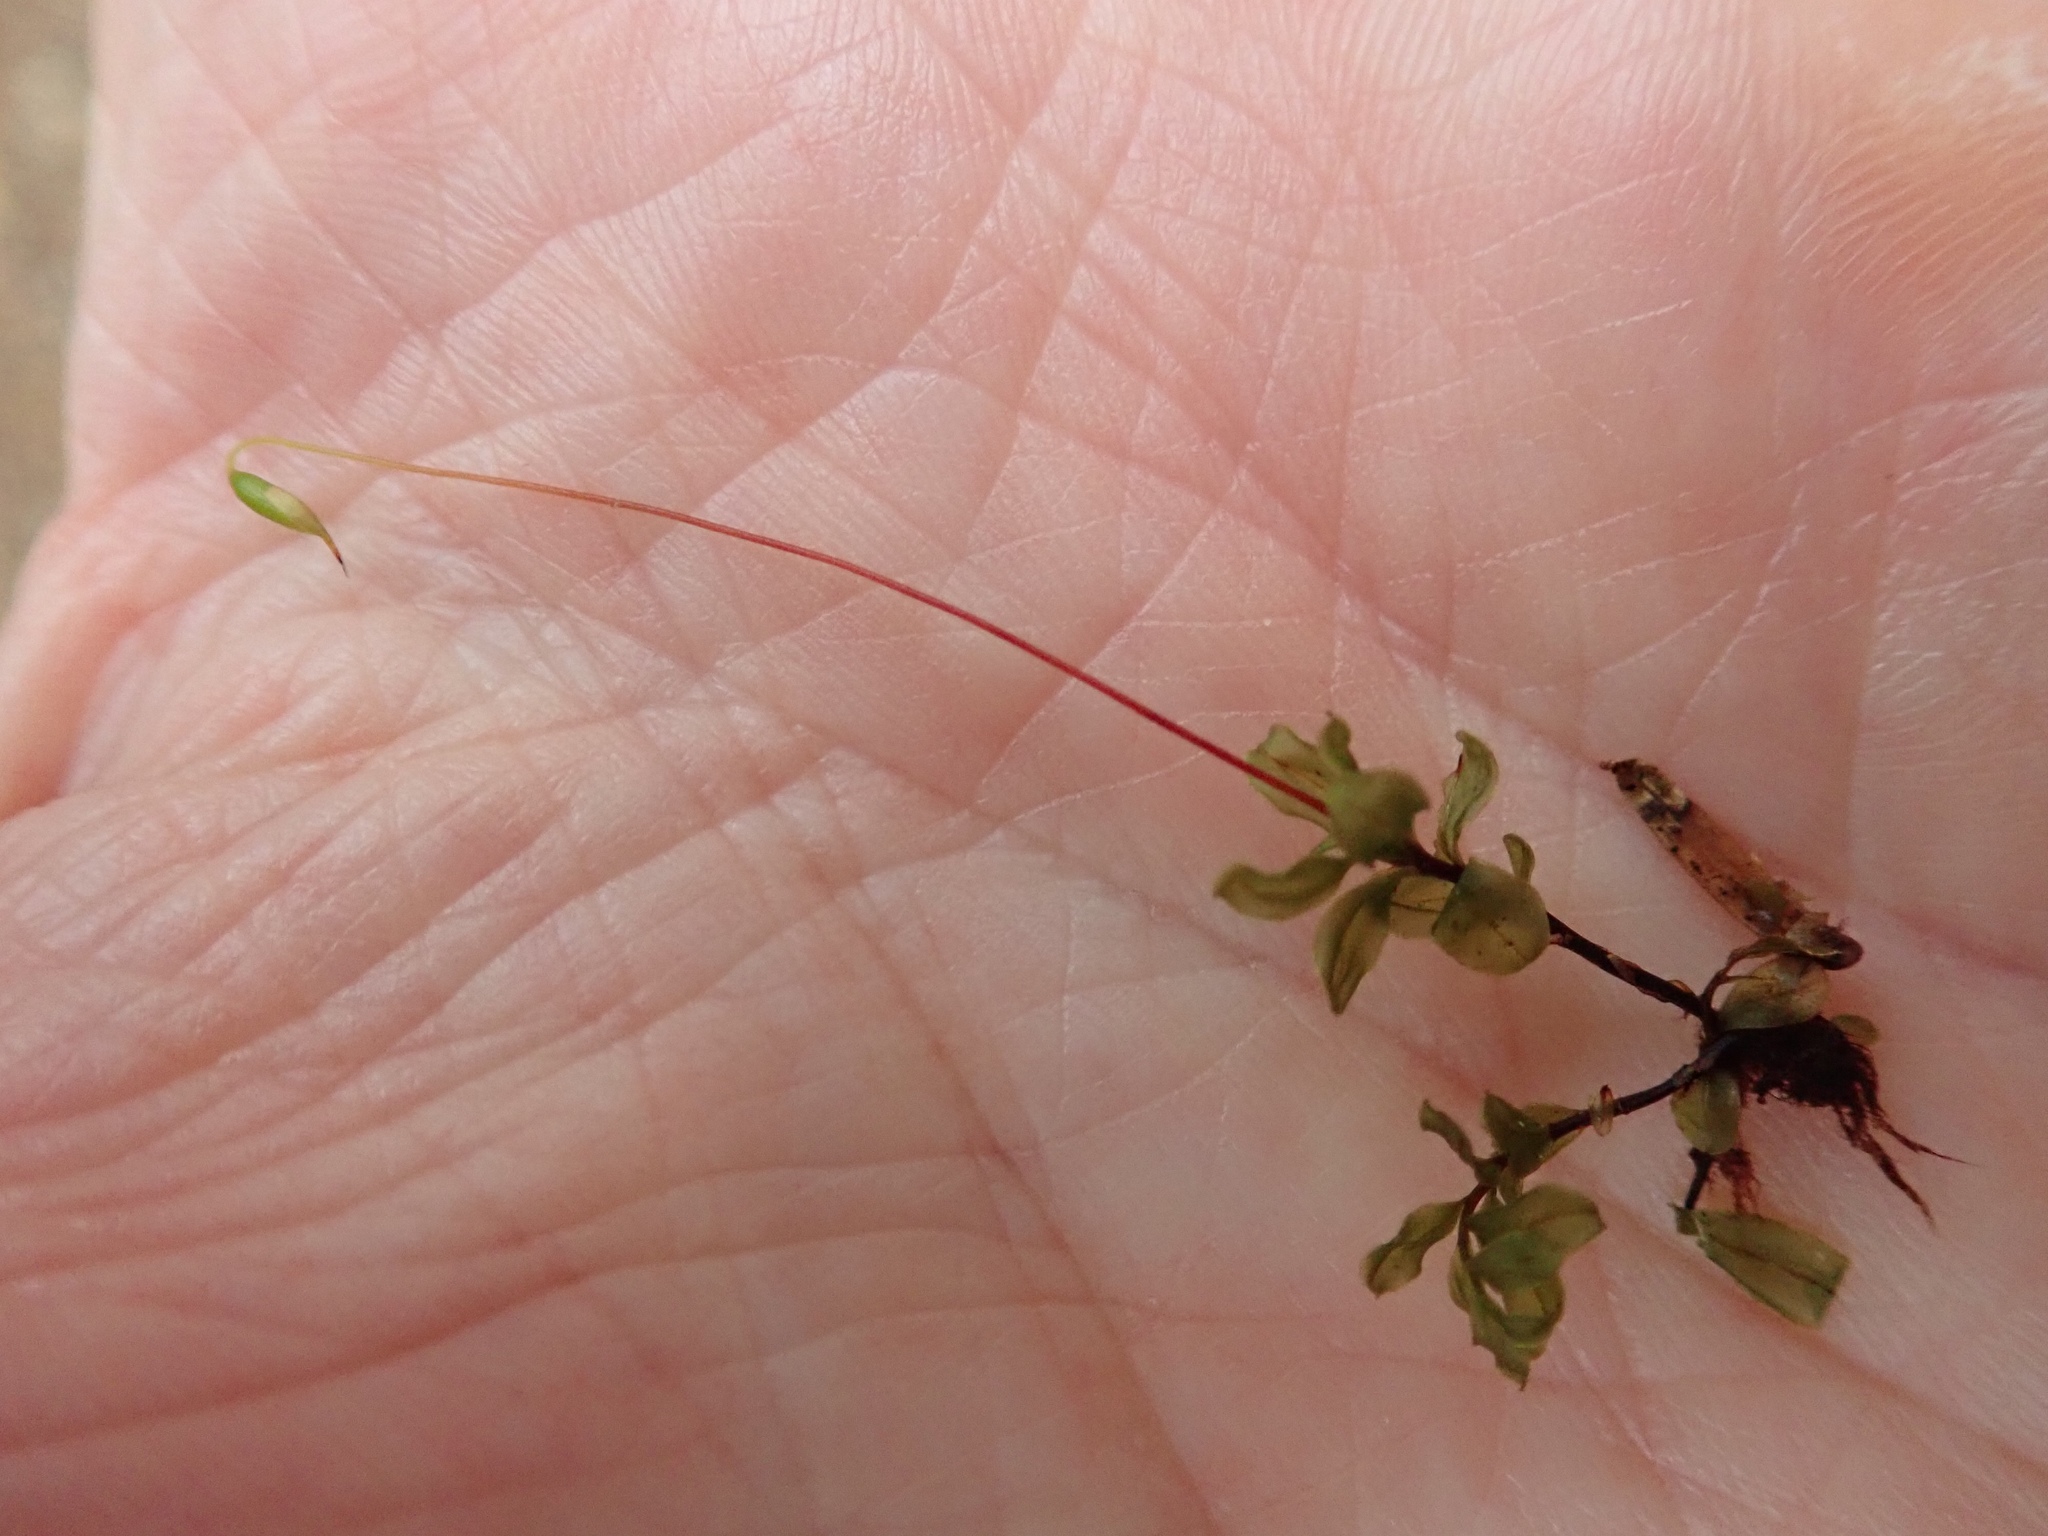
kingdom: Plantae
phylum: Bryophyta
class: Bryopsida
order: Bryales
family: Mniaceae
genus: Plagiomnium
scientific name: Plagiomnium insigne
